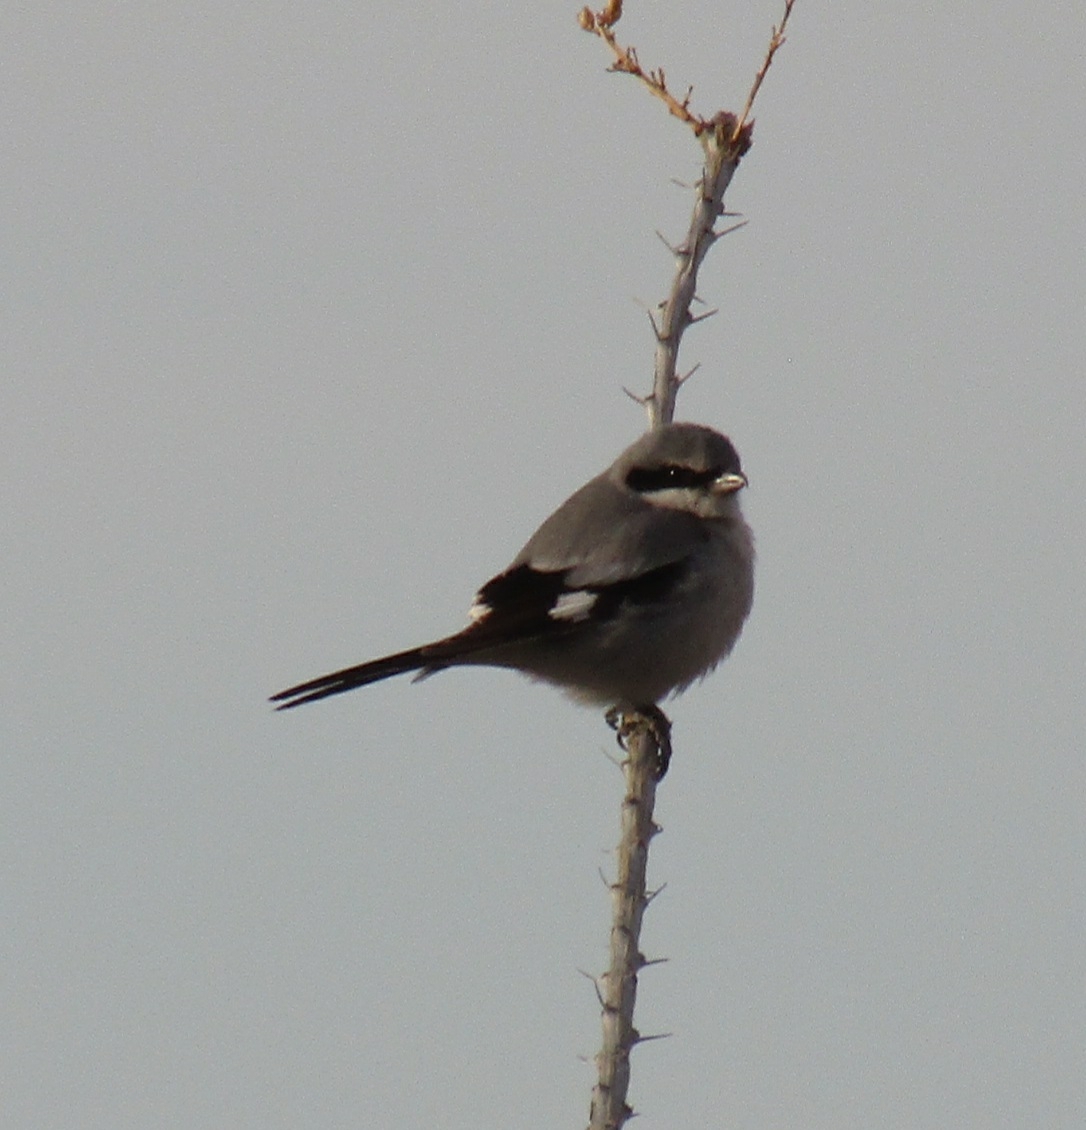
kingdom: Animalia
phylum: Chordata
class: Aves
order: Passeriformes
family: Laniidae
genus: Lanius
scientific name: Lanius ludovicianus
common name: Loggerhead shrike
